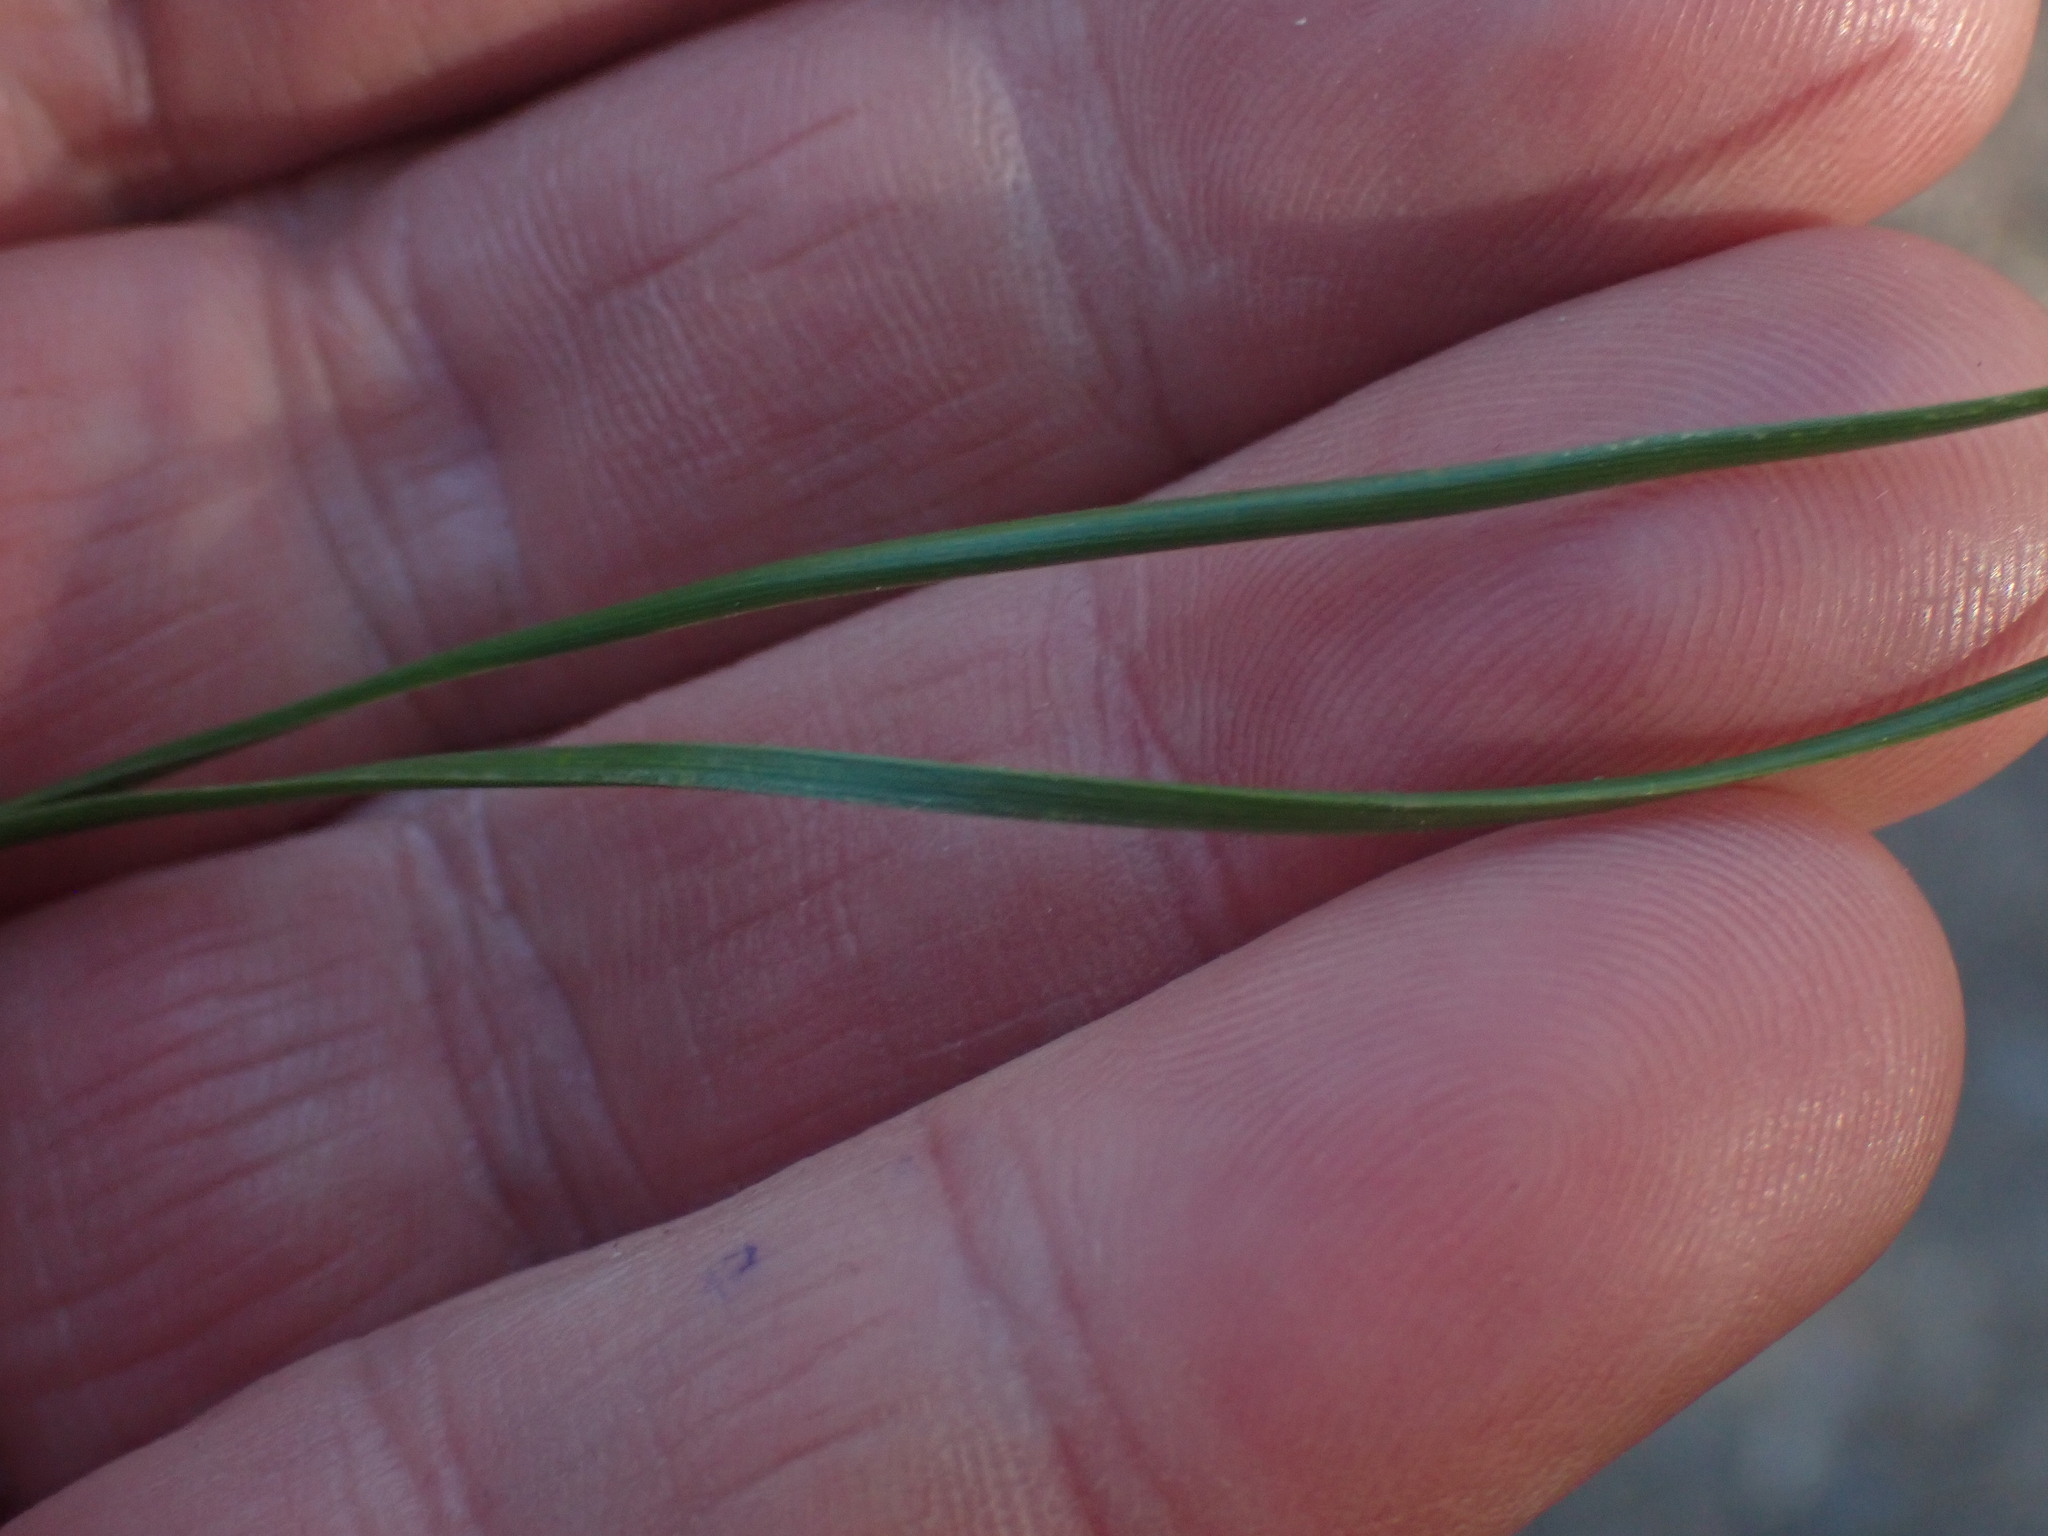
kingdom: Plantae
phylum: Tracheophyta
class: Pinopsida
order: Pinales
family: Pinaceae
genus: Pinus
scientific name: Pinus contorta
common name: Lodgepole pine
